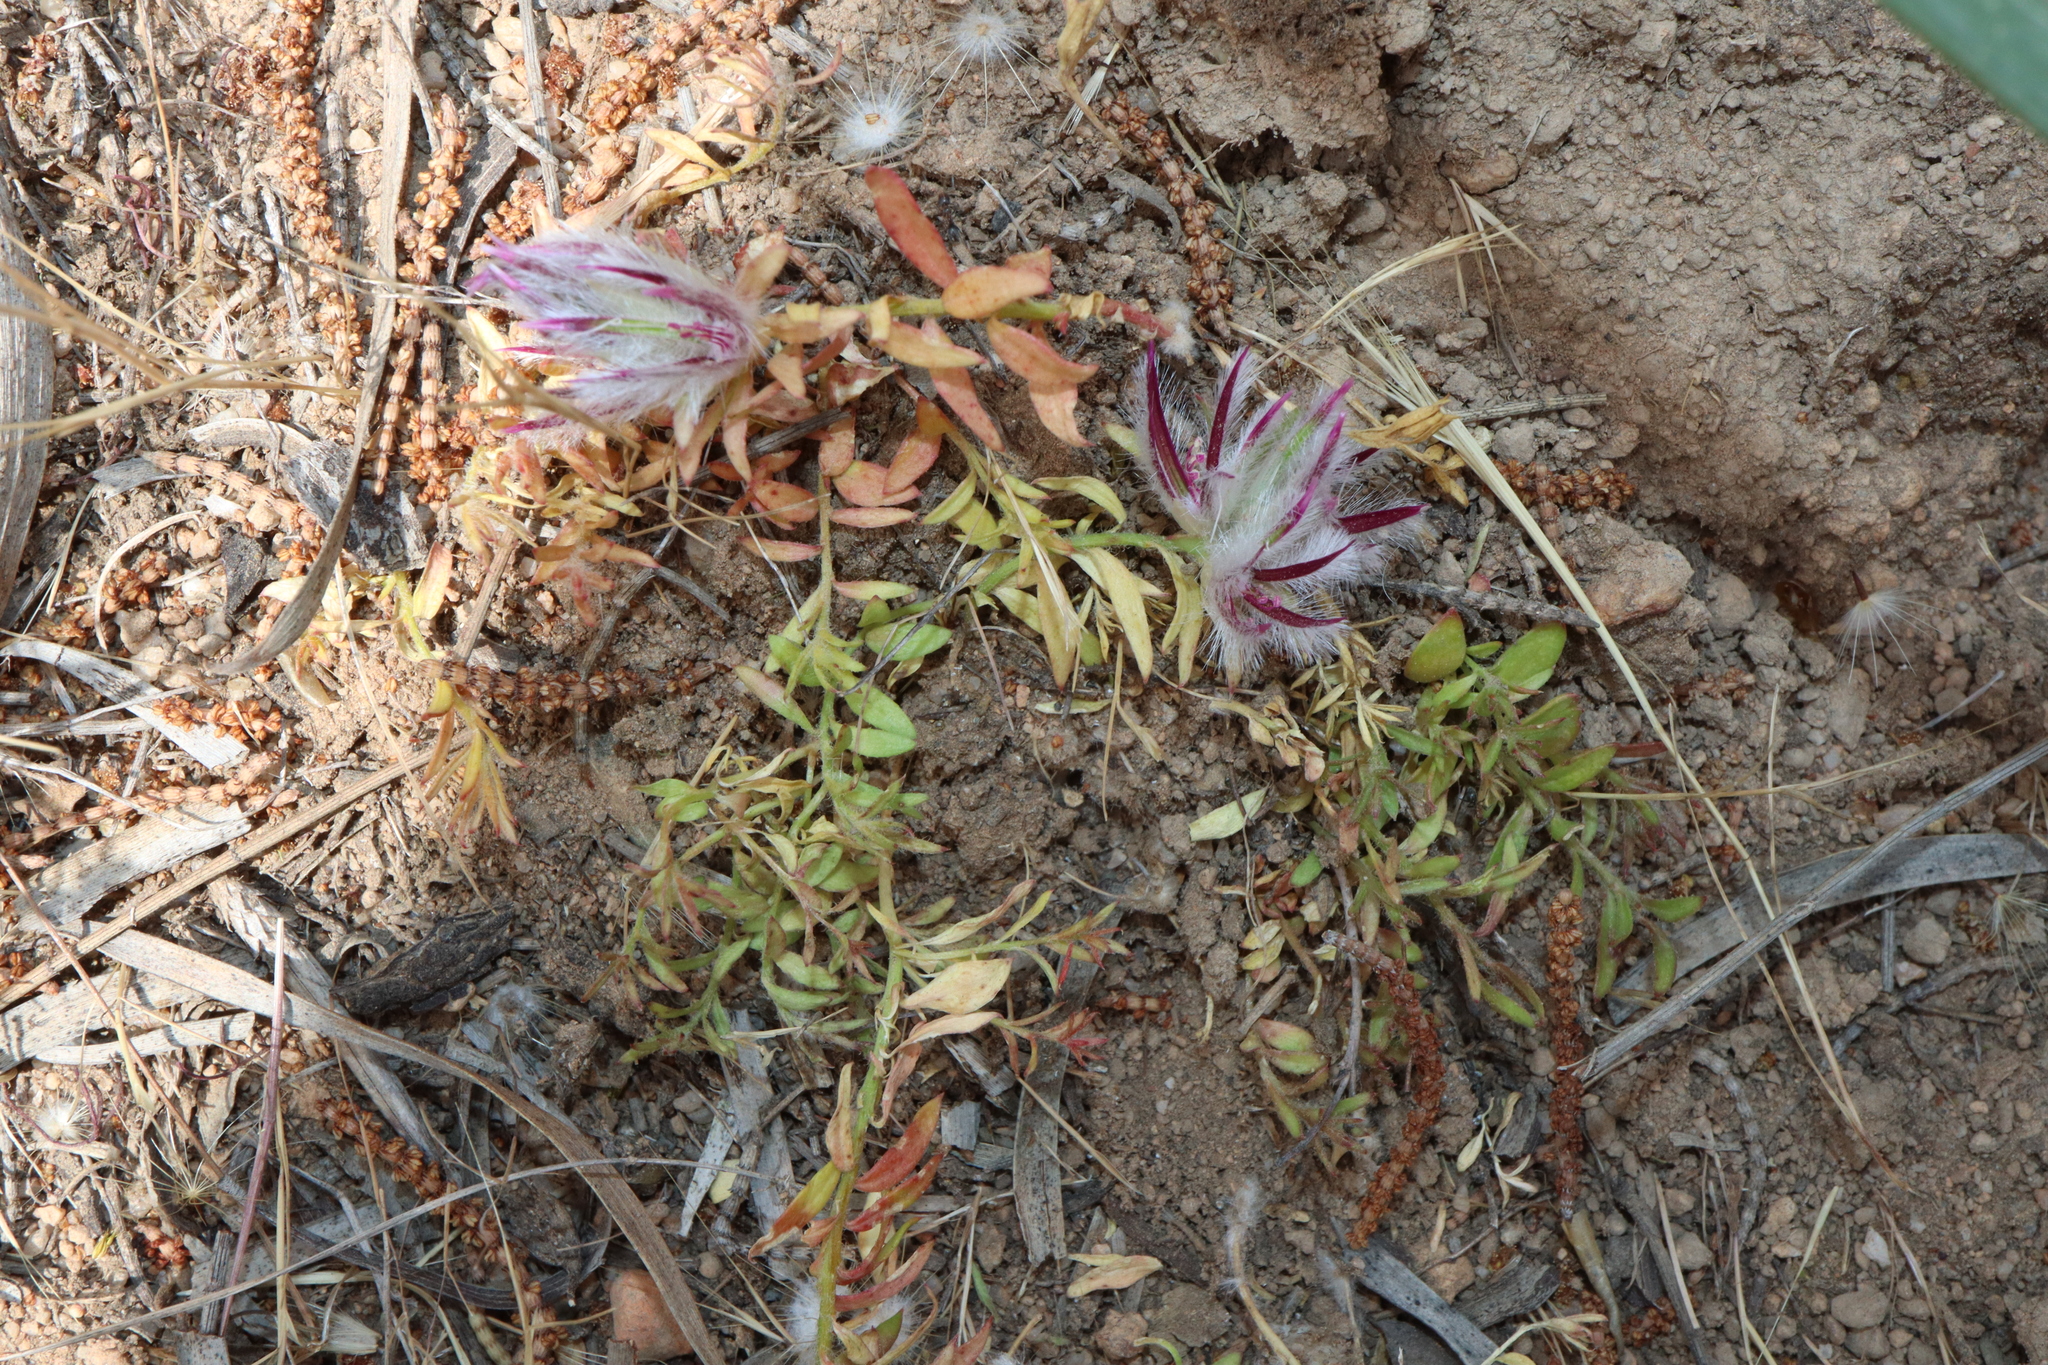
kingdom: Plantae
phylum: Tracheophyta
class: Magnoliopsida
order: Caryophyllales
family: Amaranthaceae
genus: Ptilotus
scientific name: Ptilotus declinatus
